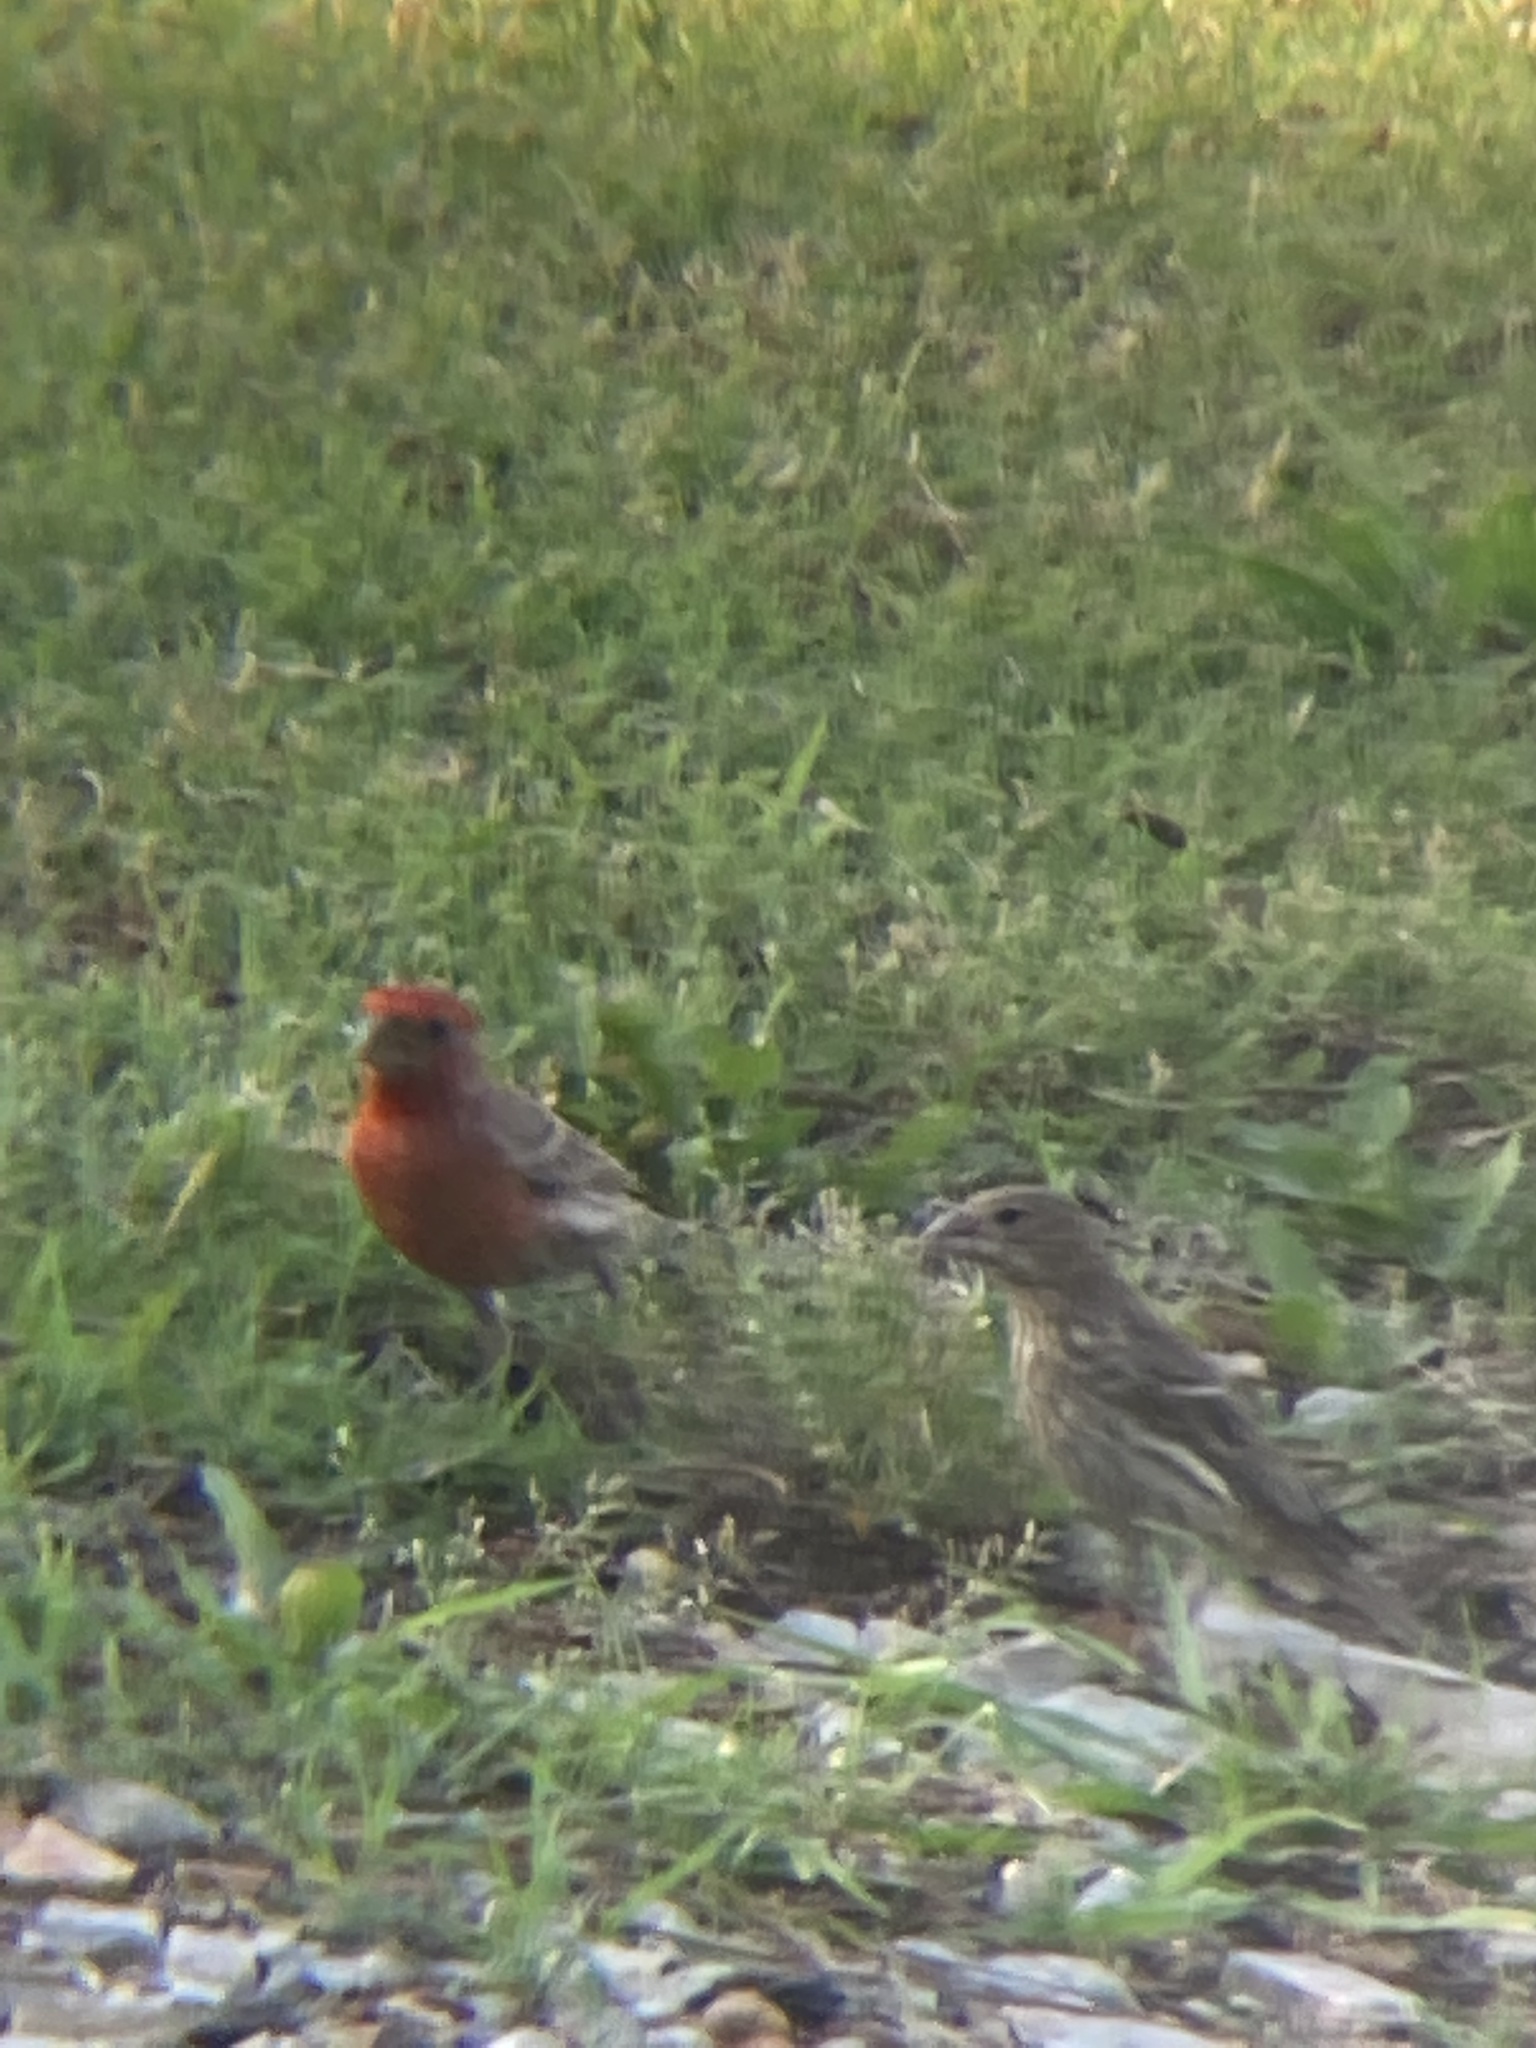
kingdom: Animalia
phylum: Chordata
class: Aves
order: Passeriformes
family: Fringillidae
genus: Haemorhous
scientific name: Haemorhous mexicanus
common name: House finch
